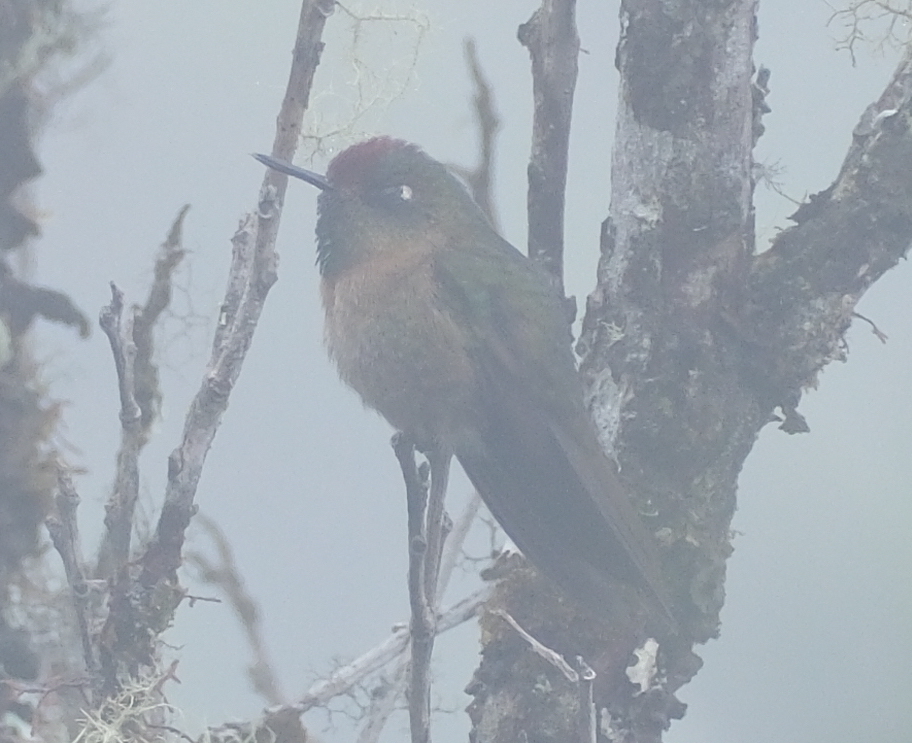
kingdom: Animalia
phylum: Chordata
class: Aves
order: Apodiformes
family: Trochilidae
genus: Chalcostigma
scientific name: Chalcostigma ruficeps
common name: Rufous-capped thornbill
